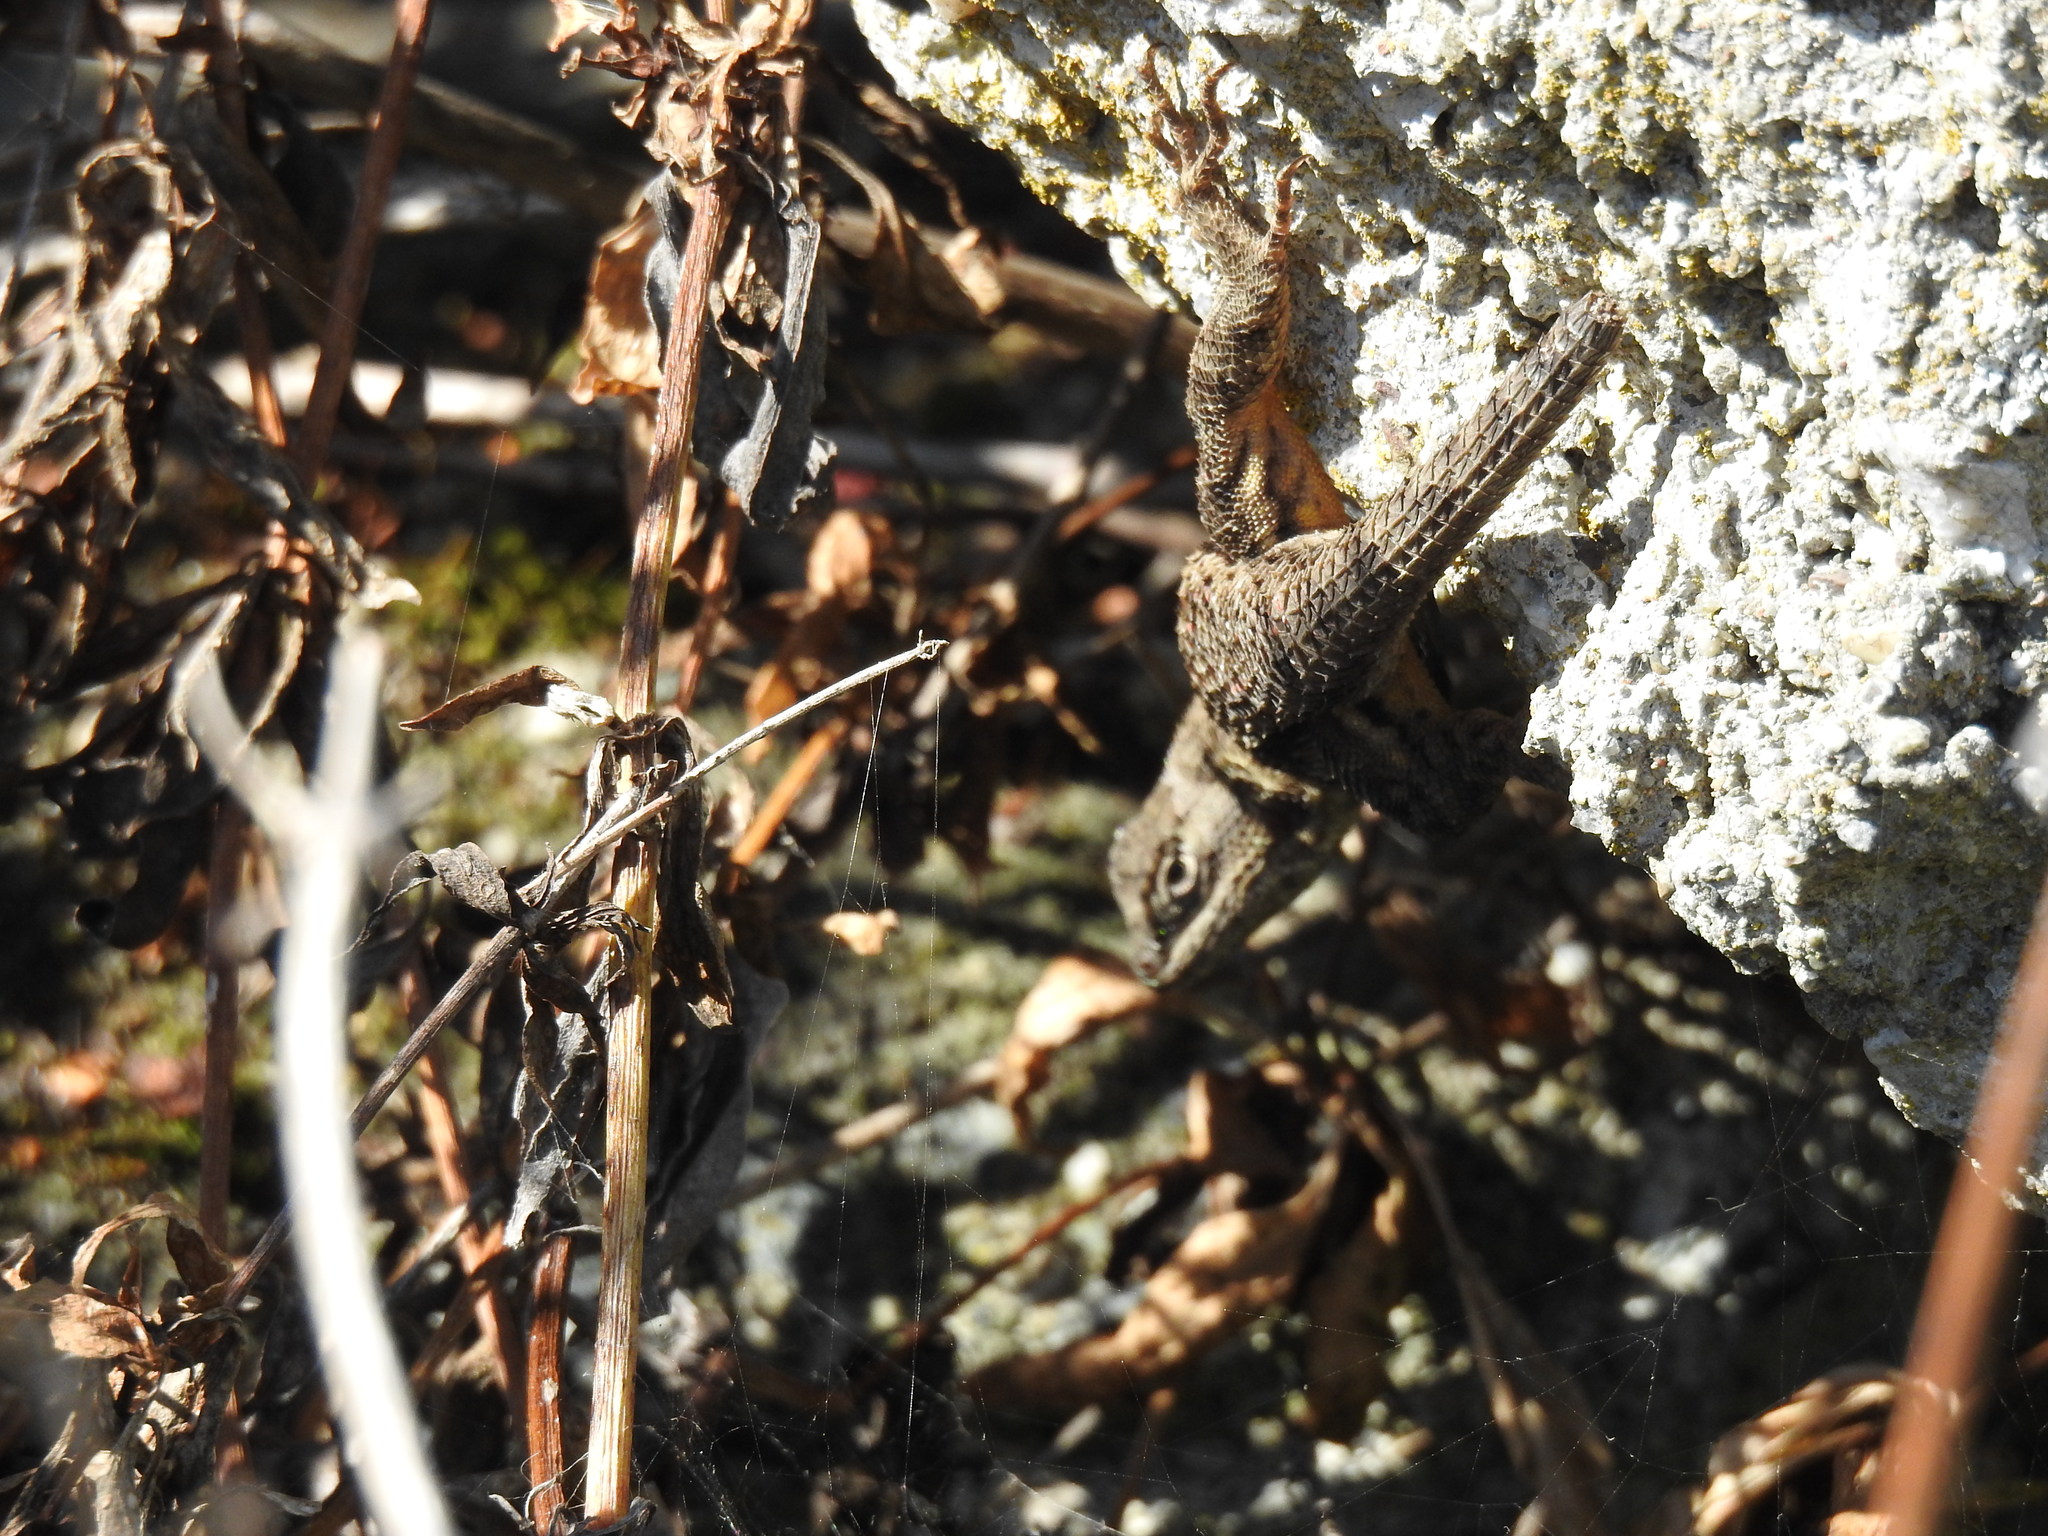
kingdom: Animalia
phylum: Chordata
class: Squamata
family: Phrynosomatidae
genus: Sceloporus
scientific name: Sceloporus occidentalis
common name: Western fence lizard
